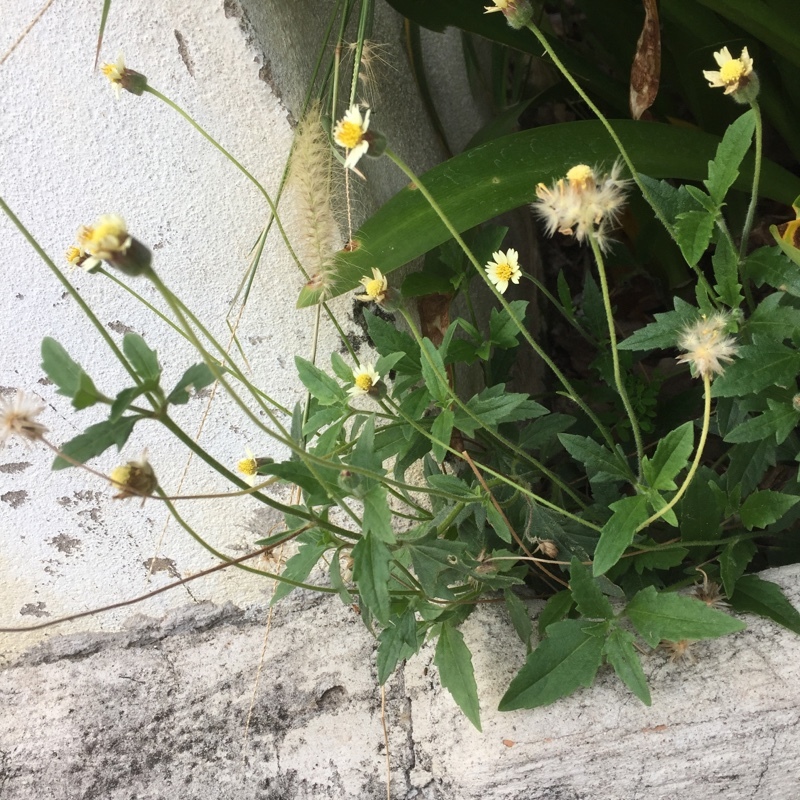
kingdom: Plantae
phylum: Tracheophyta
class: Magnoliopsida
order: Asterales
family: Asteraceae
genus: Tridax
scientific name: Tridax procumbens
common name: Coatbuttons
